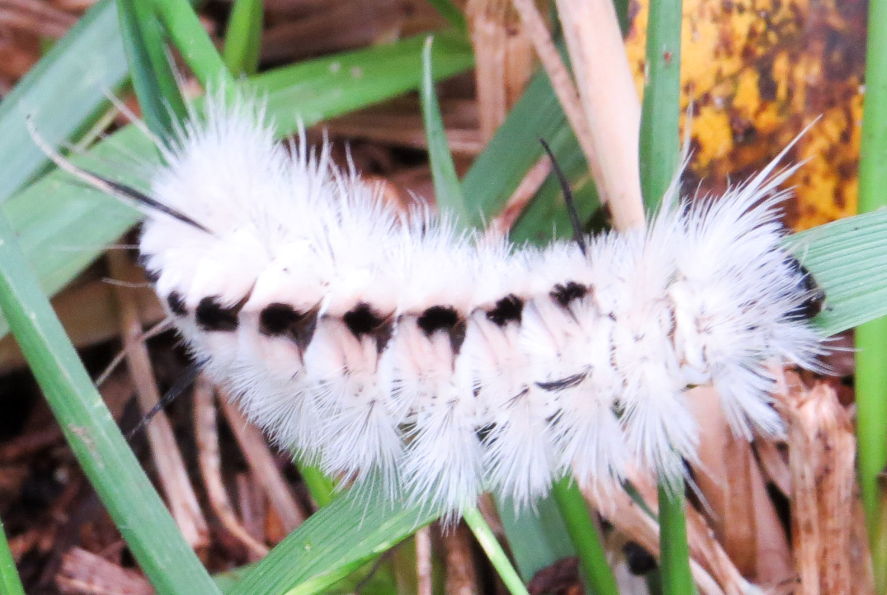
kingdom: Animalia
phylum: Arthropoda
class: Insecta
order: Lepidoptera
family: Erebidae
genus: Lophocampa
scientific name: Lophocampa caryae
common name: Hickory tussock moth
